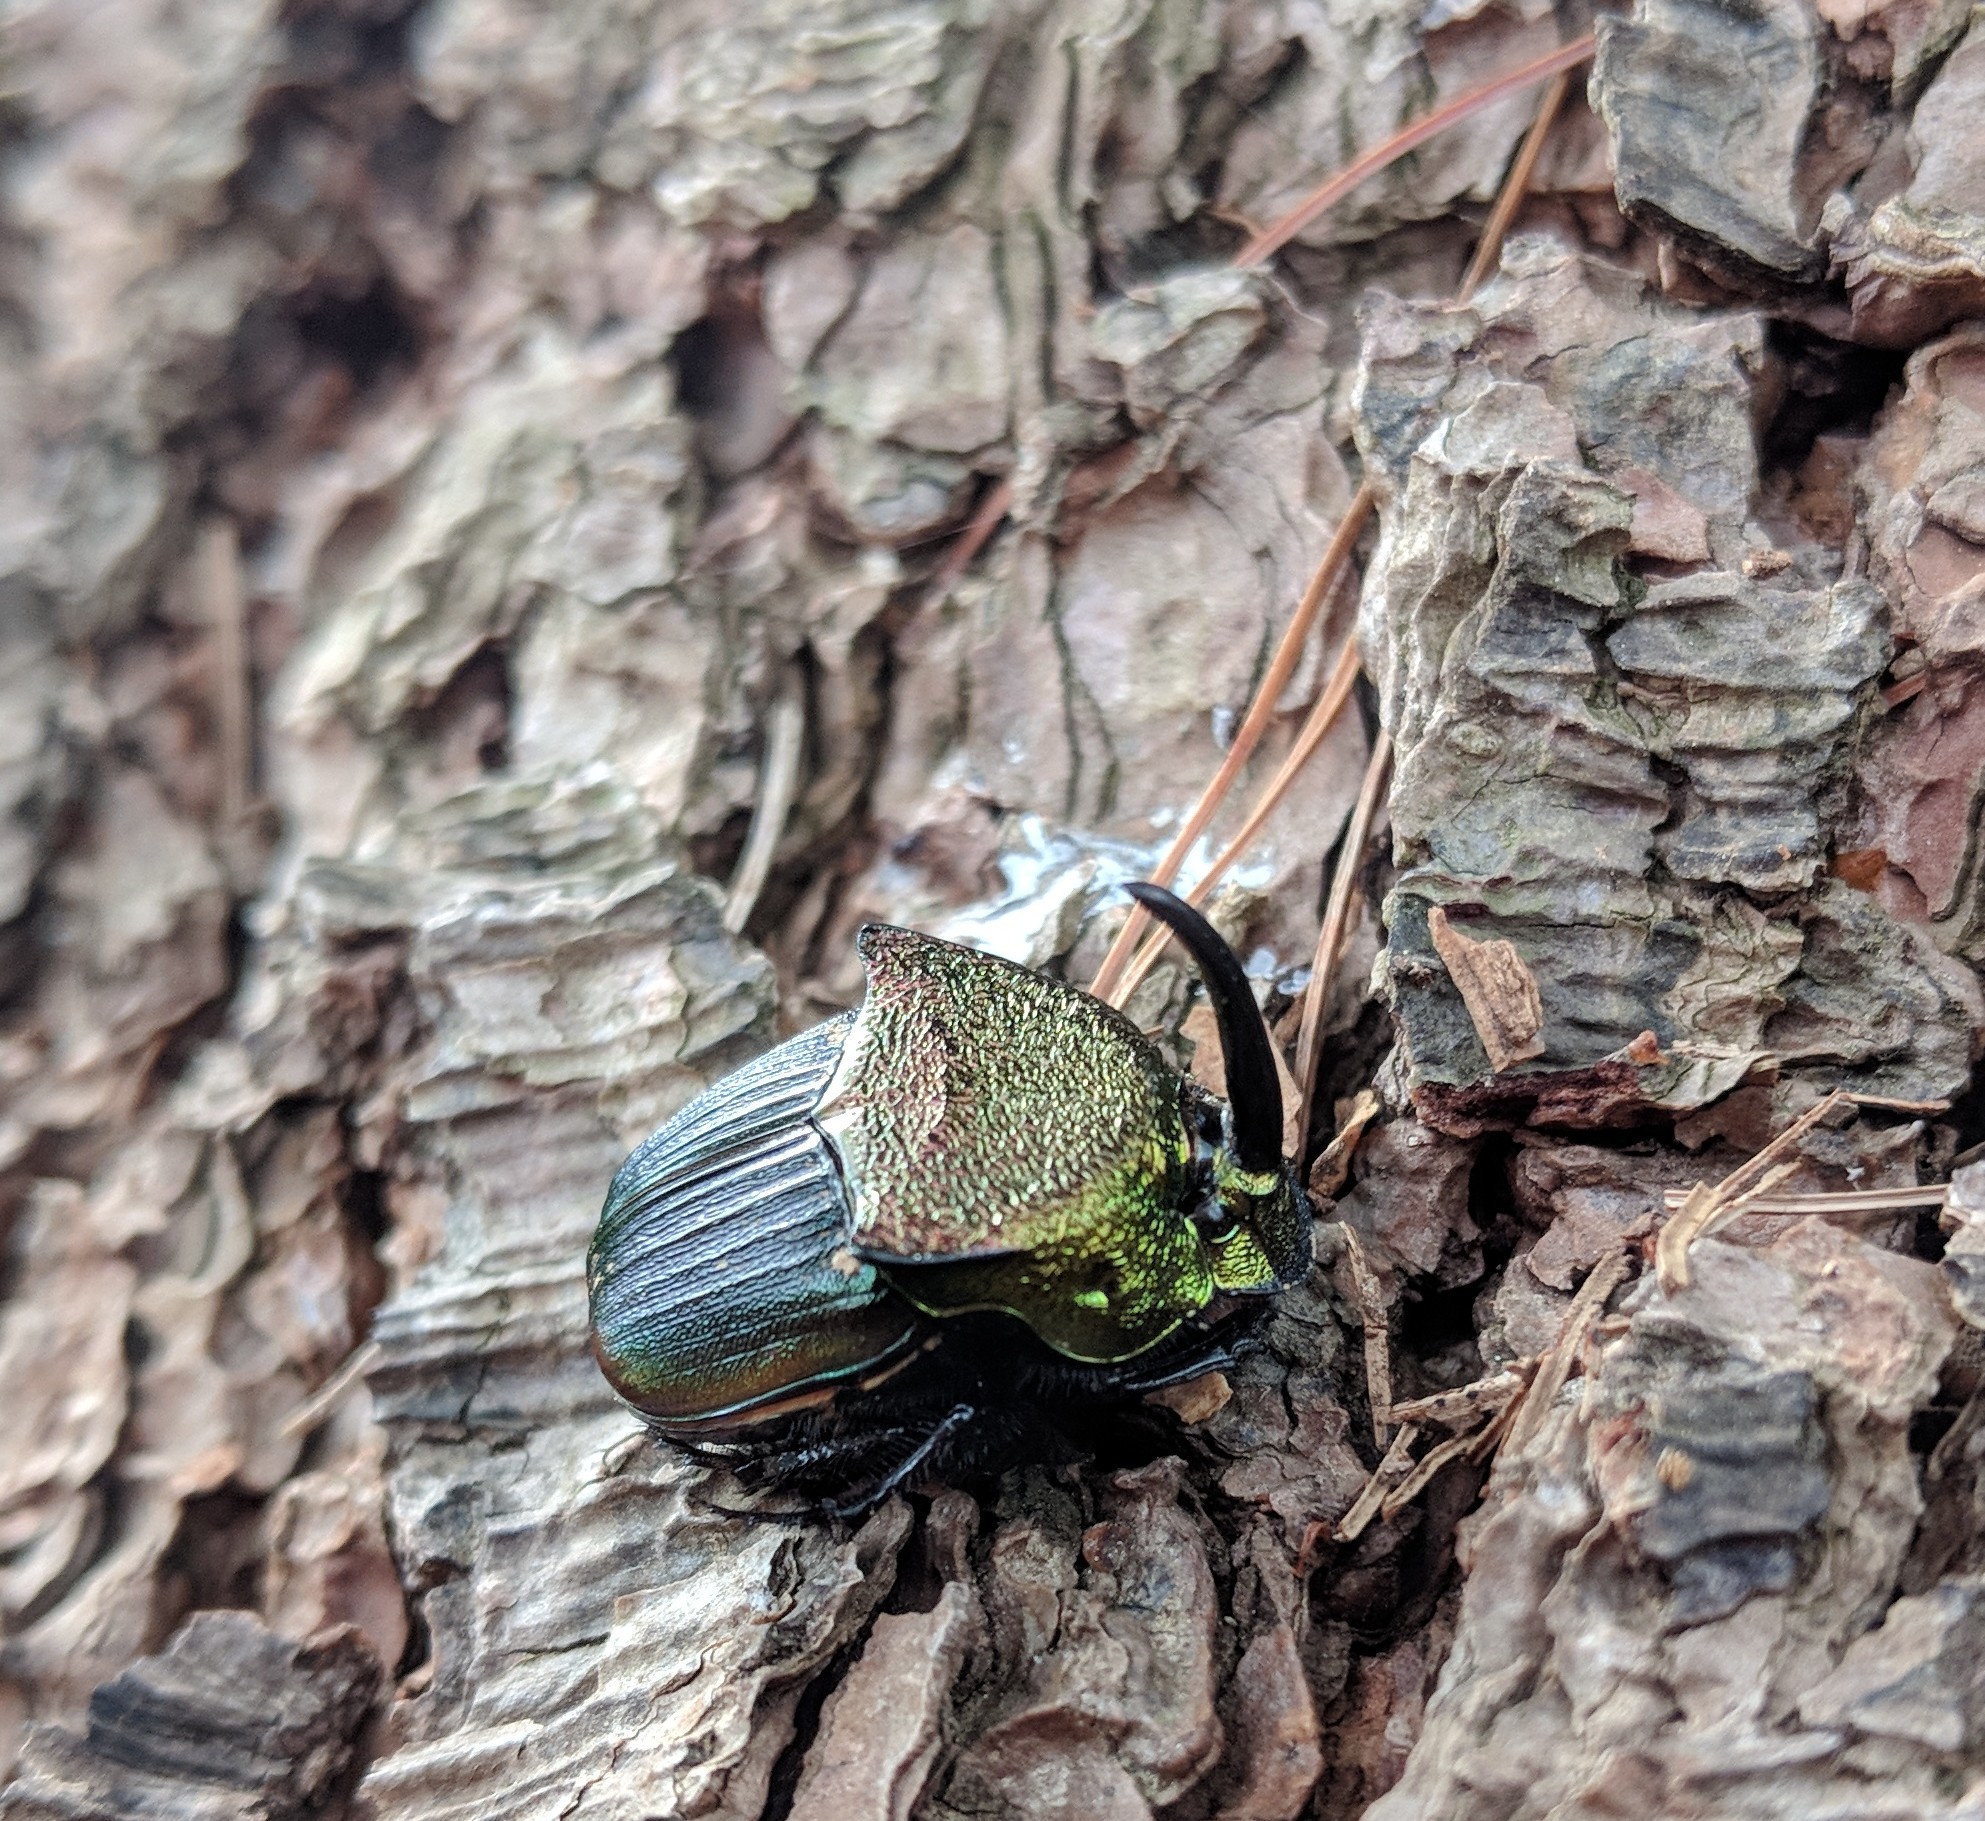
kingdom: Animalia
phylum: Arthropoda
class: Insecta
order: Coleoptera
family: Scarabaeidae
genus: Phanaeus
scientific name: Phanaeus vindex
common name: Rainbow scarab
